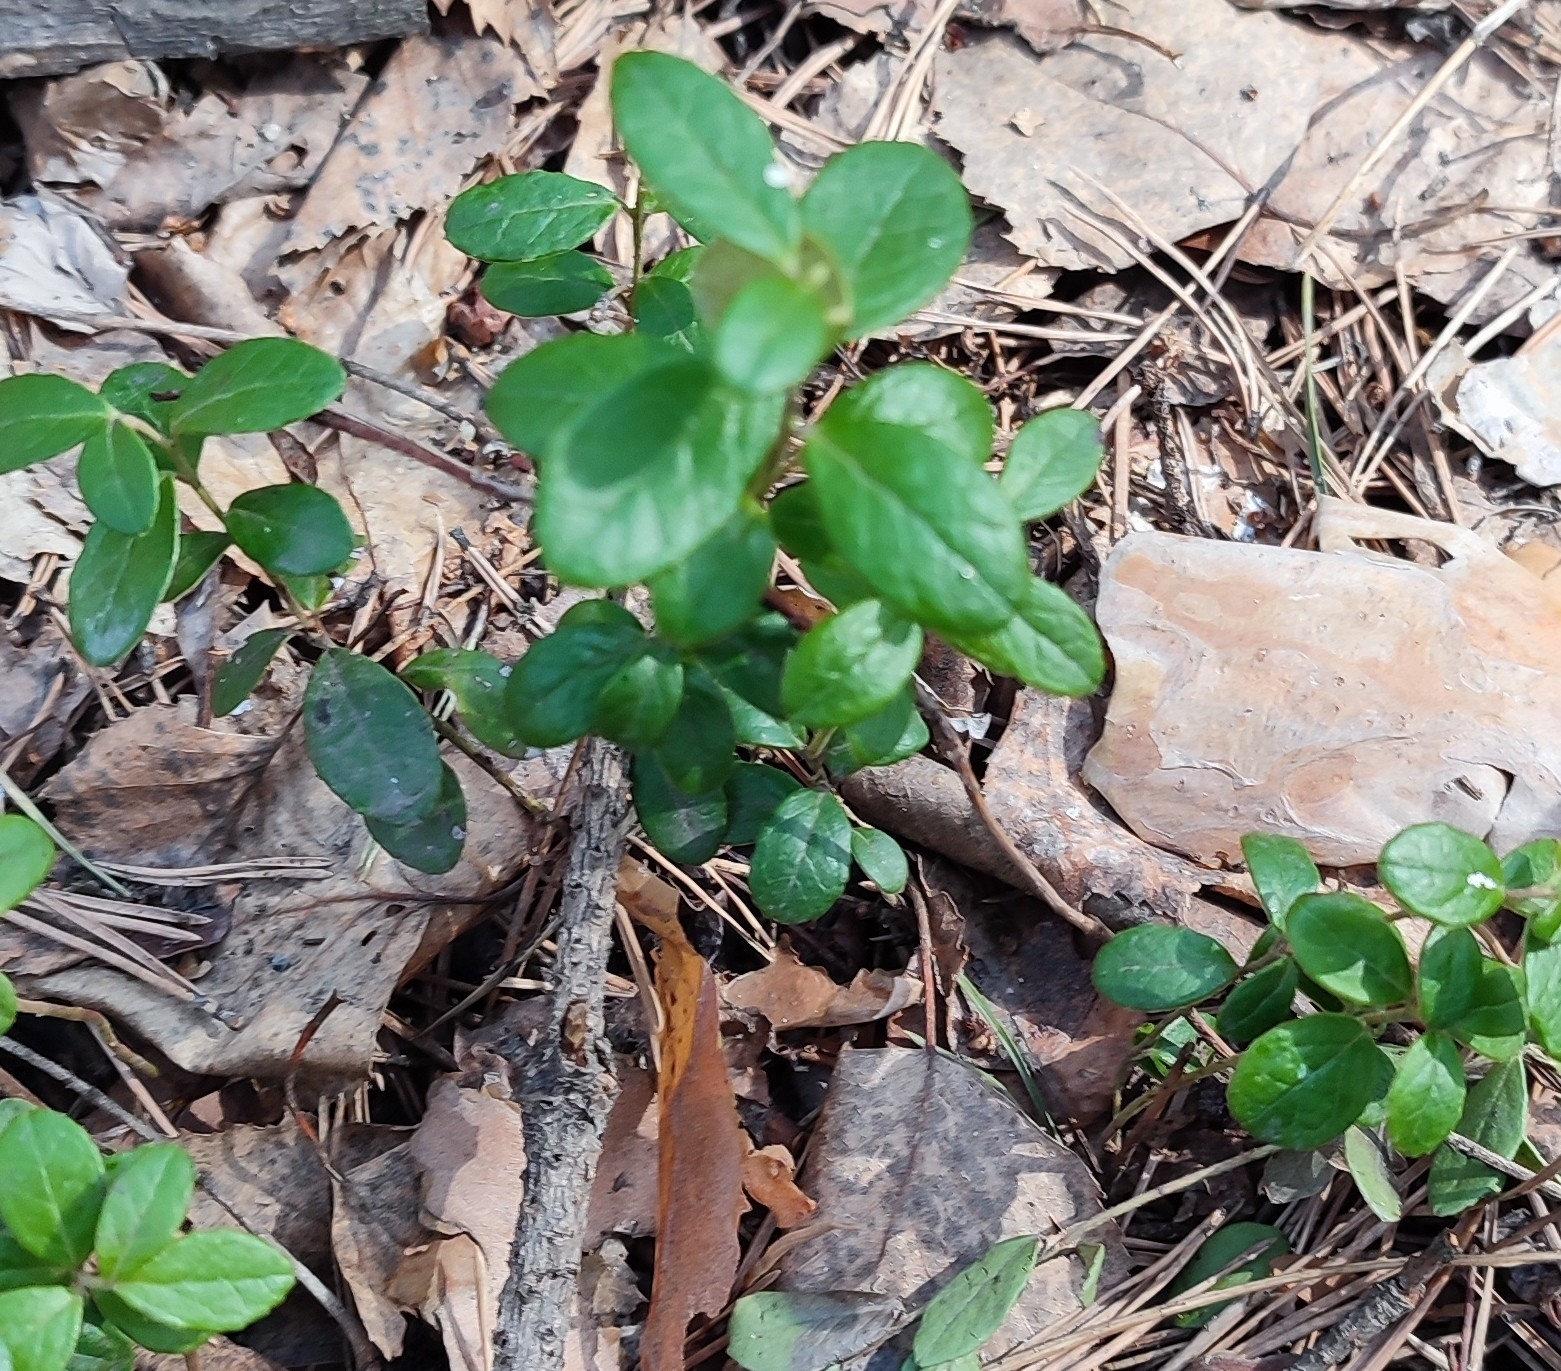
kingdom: Plantae
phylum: Tracheophyta
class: Magnoliopsida
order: Ericales
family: Ericaceae
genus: Vaccinium
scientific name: Vaccinium vitis-idaea
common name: Cowberry
